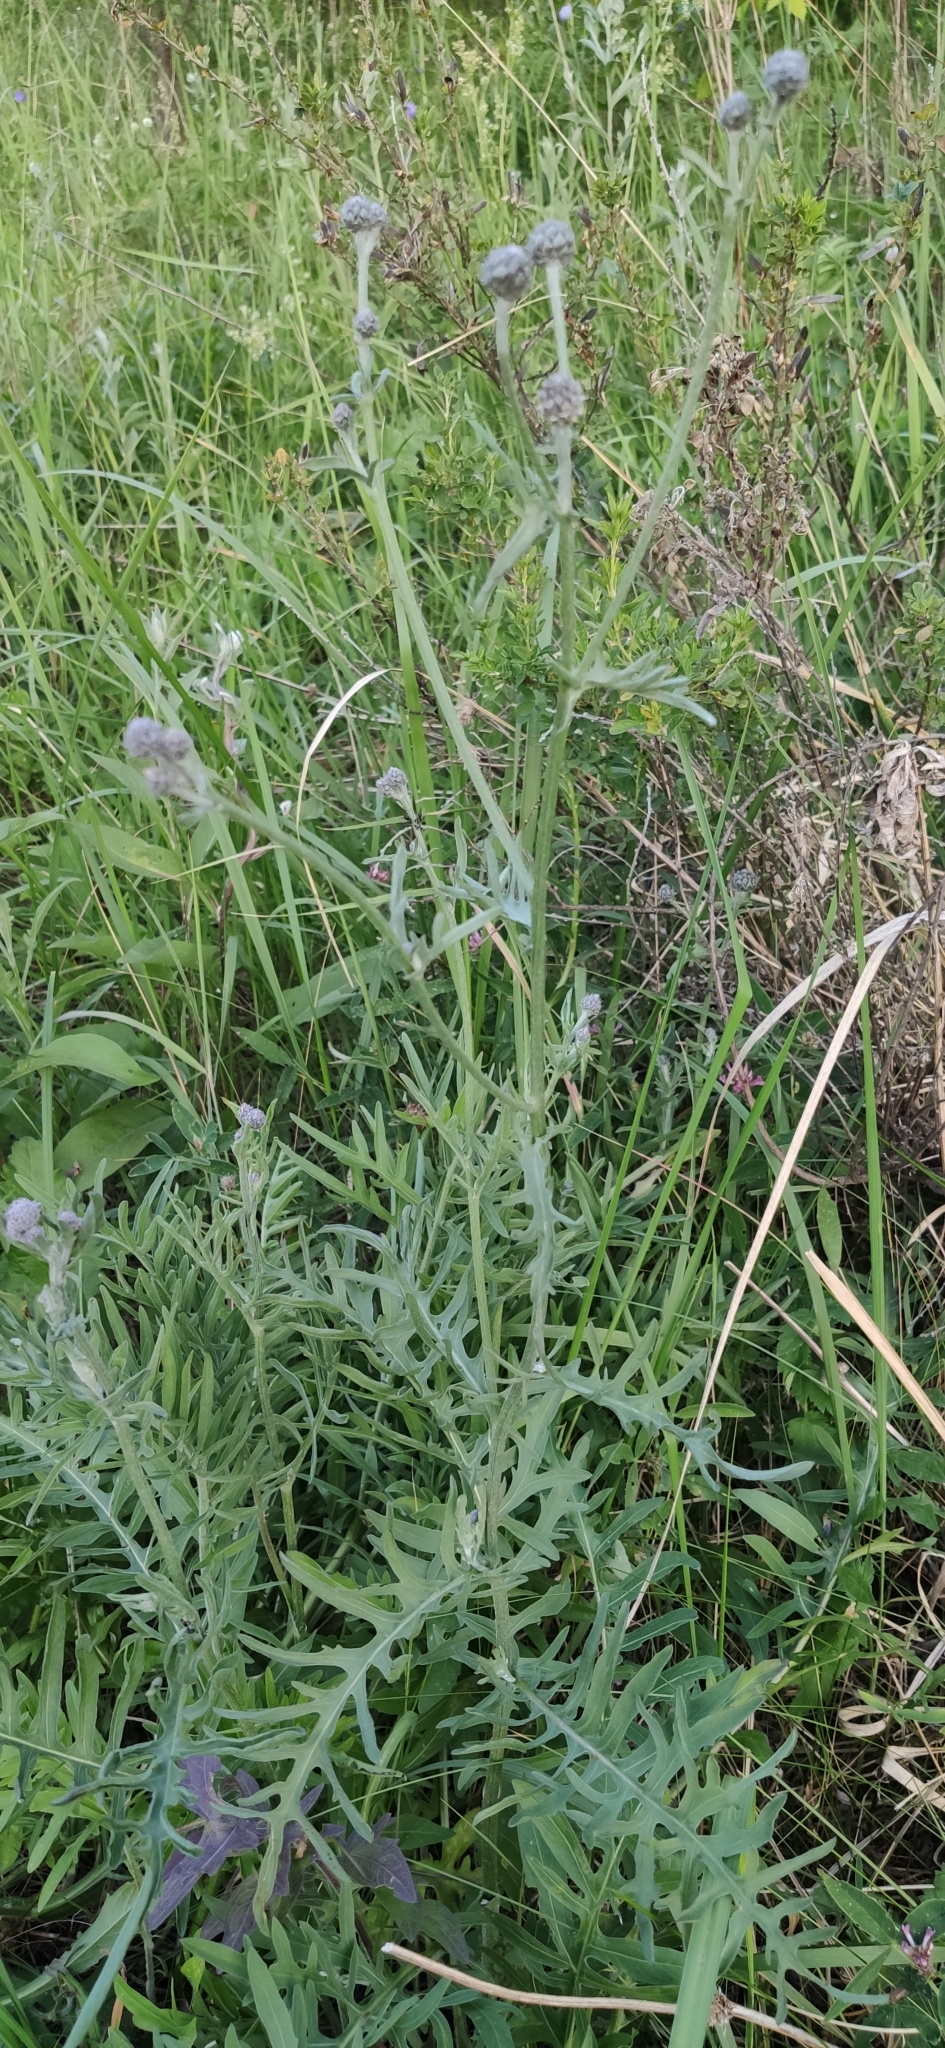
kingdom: Plantae
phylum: Tracheophyta
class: Magnoliopsida
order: Asterales
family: Asteraceae
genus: Centaurea
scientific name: Centaurea scabiosa
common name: Greater knapweed
